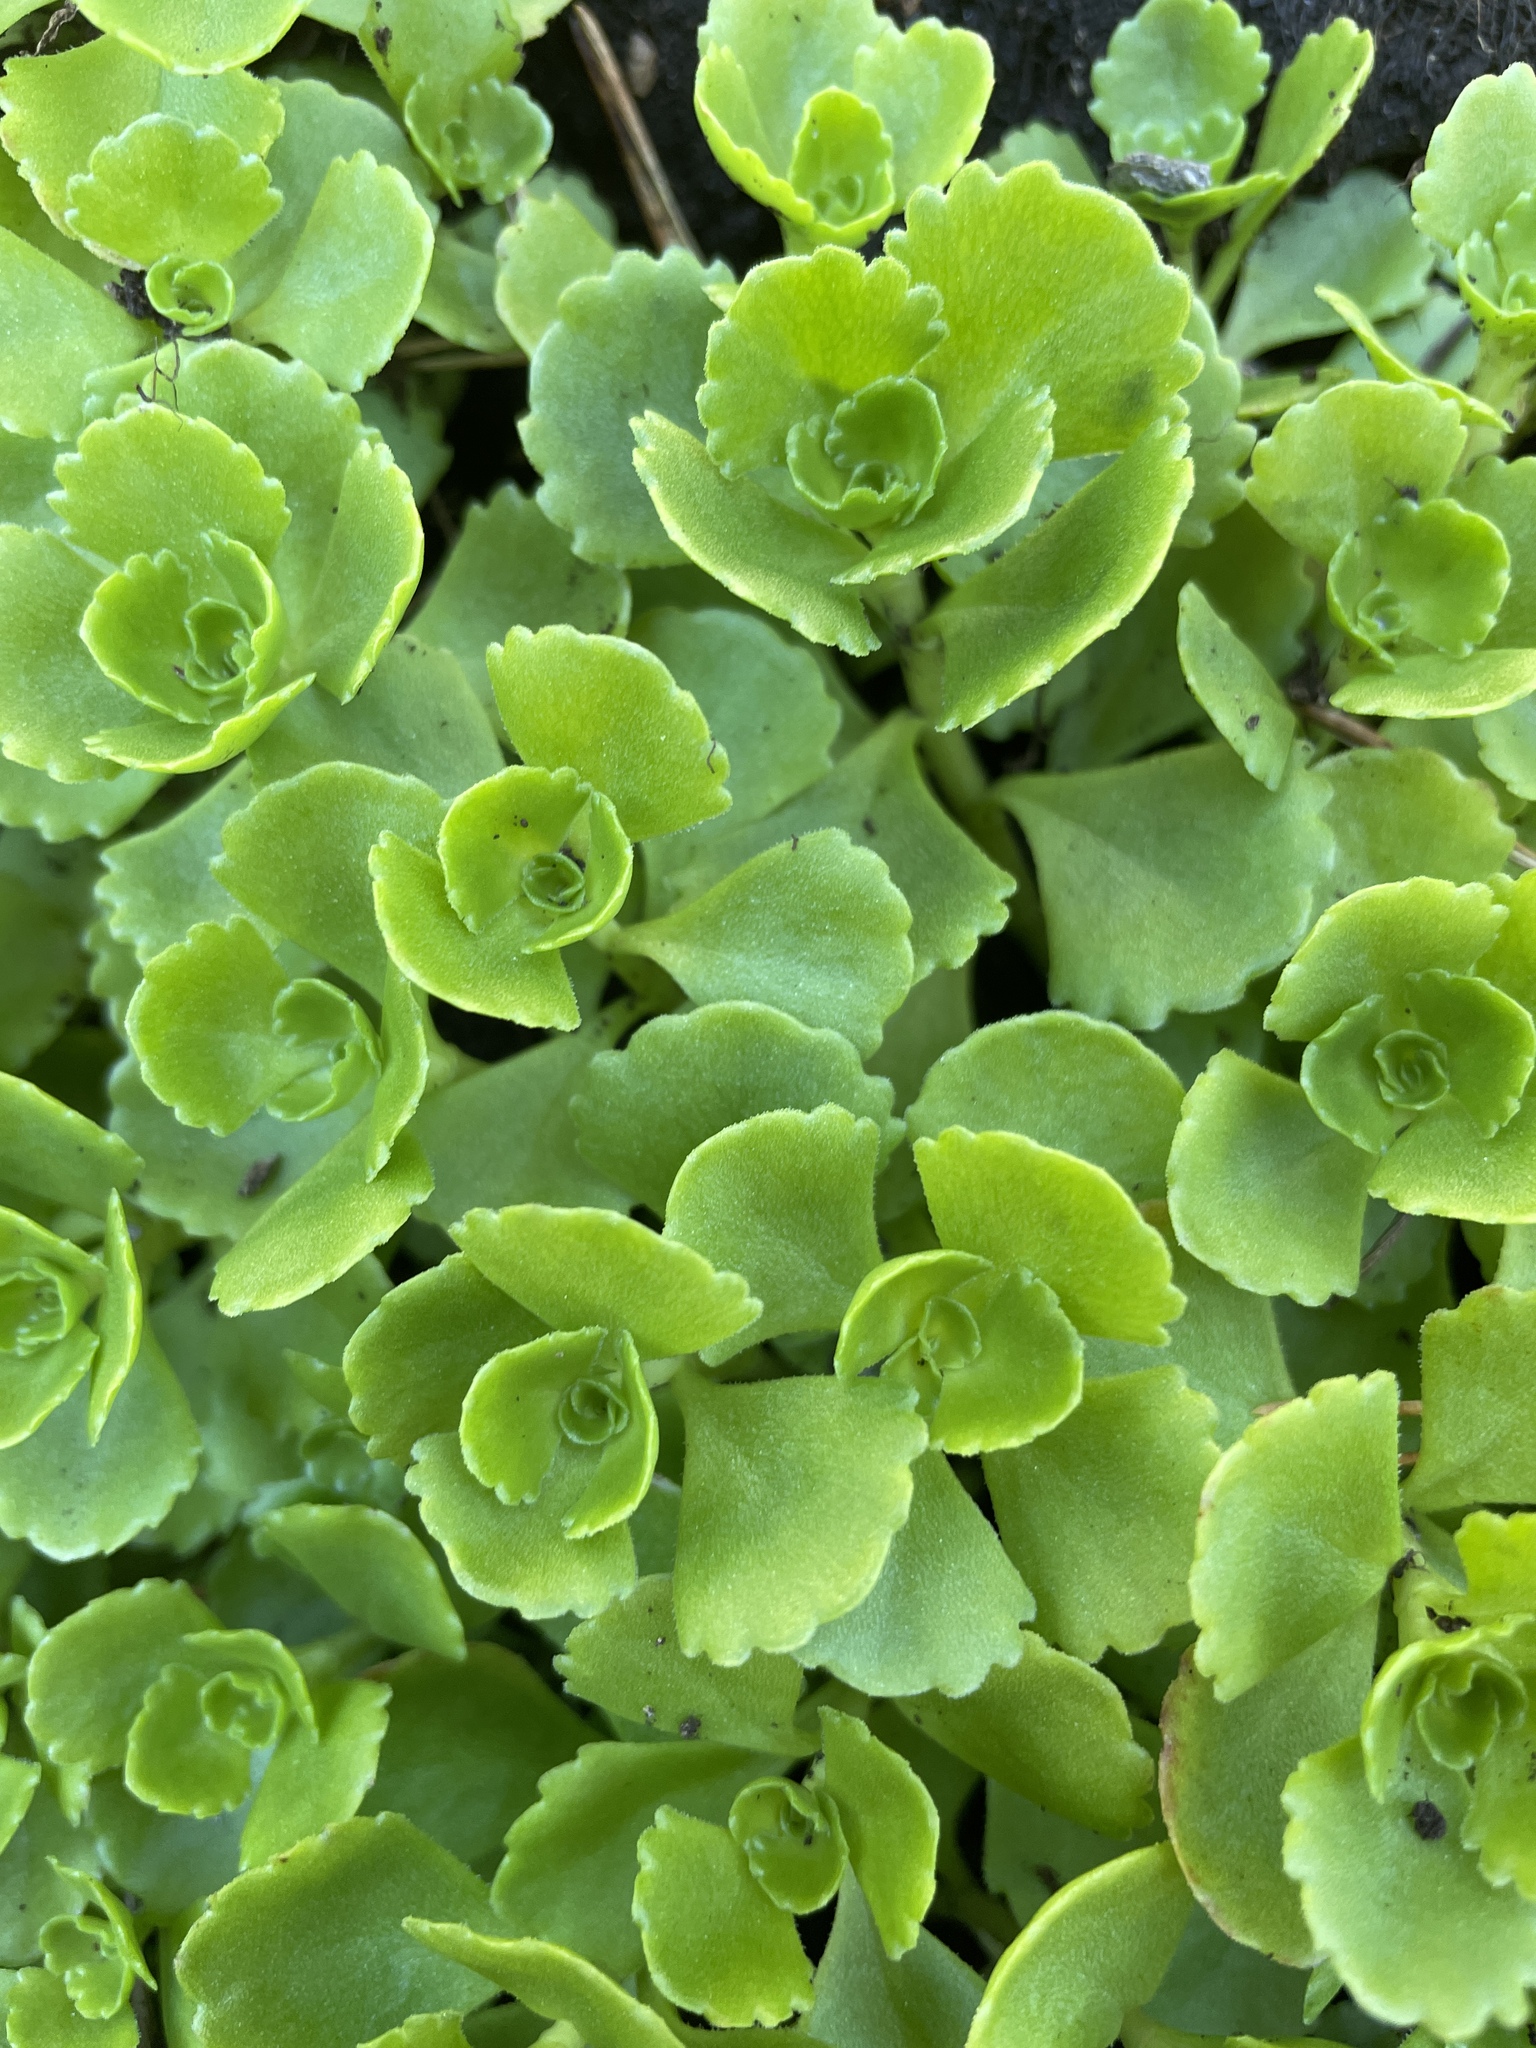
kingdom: Plantae
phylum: Tracheophyta
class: Magnoliopsida
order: Saxifragales
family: Crassulaceae
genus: Phedimus
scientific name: Phedimus spurius
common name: Caucasian stonecrop
